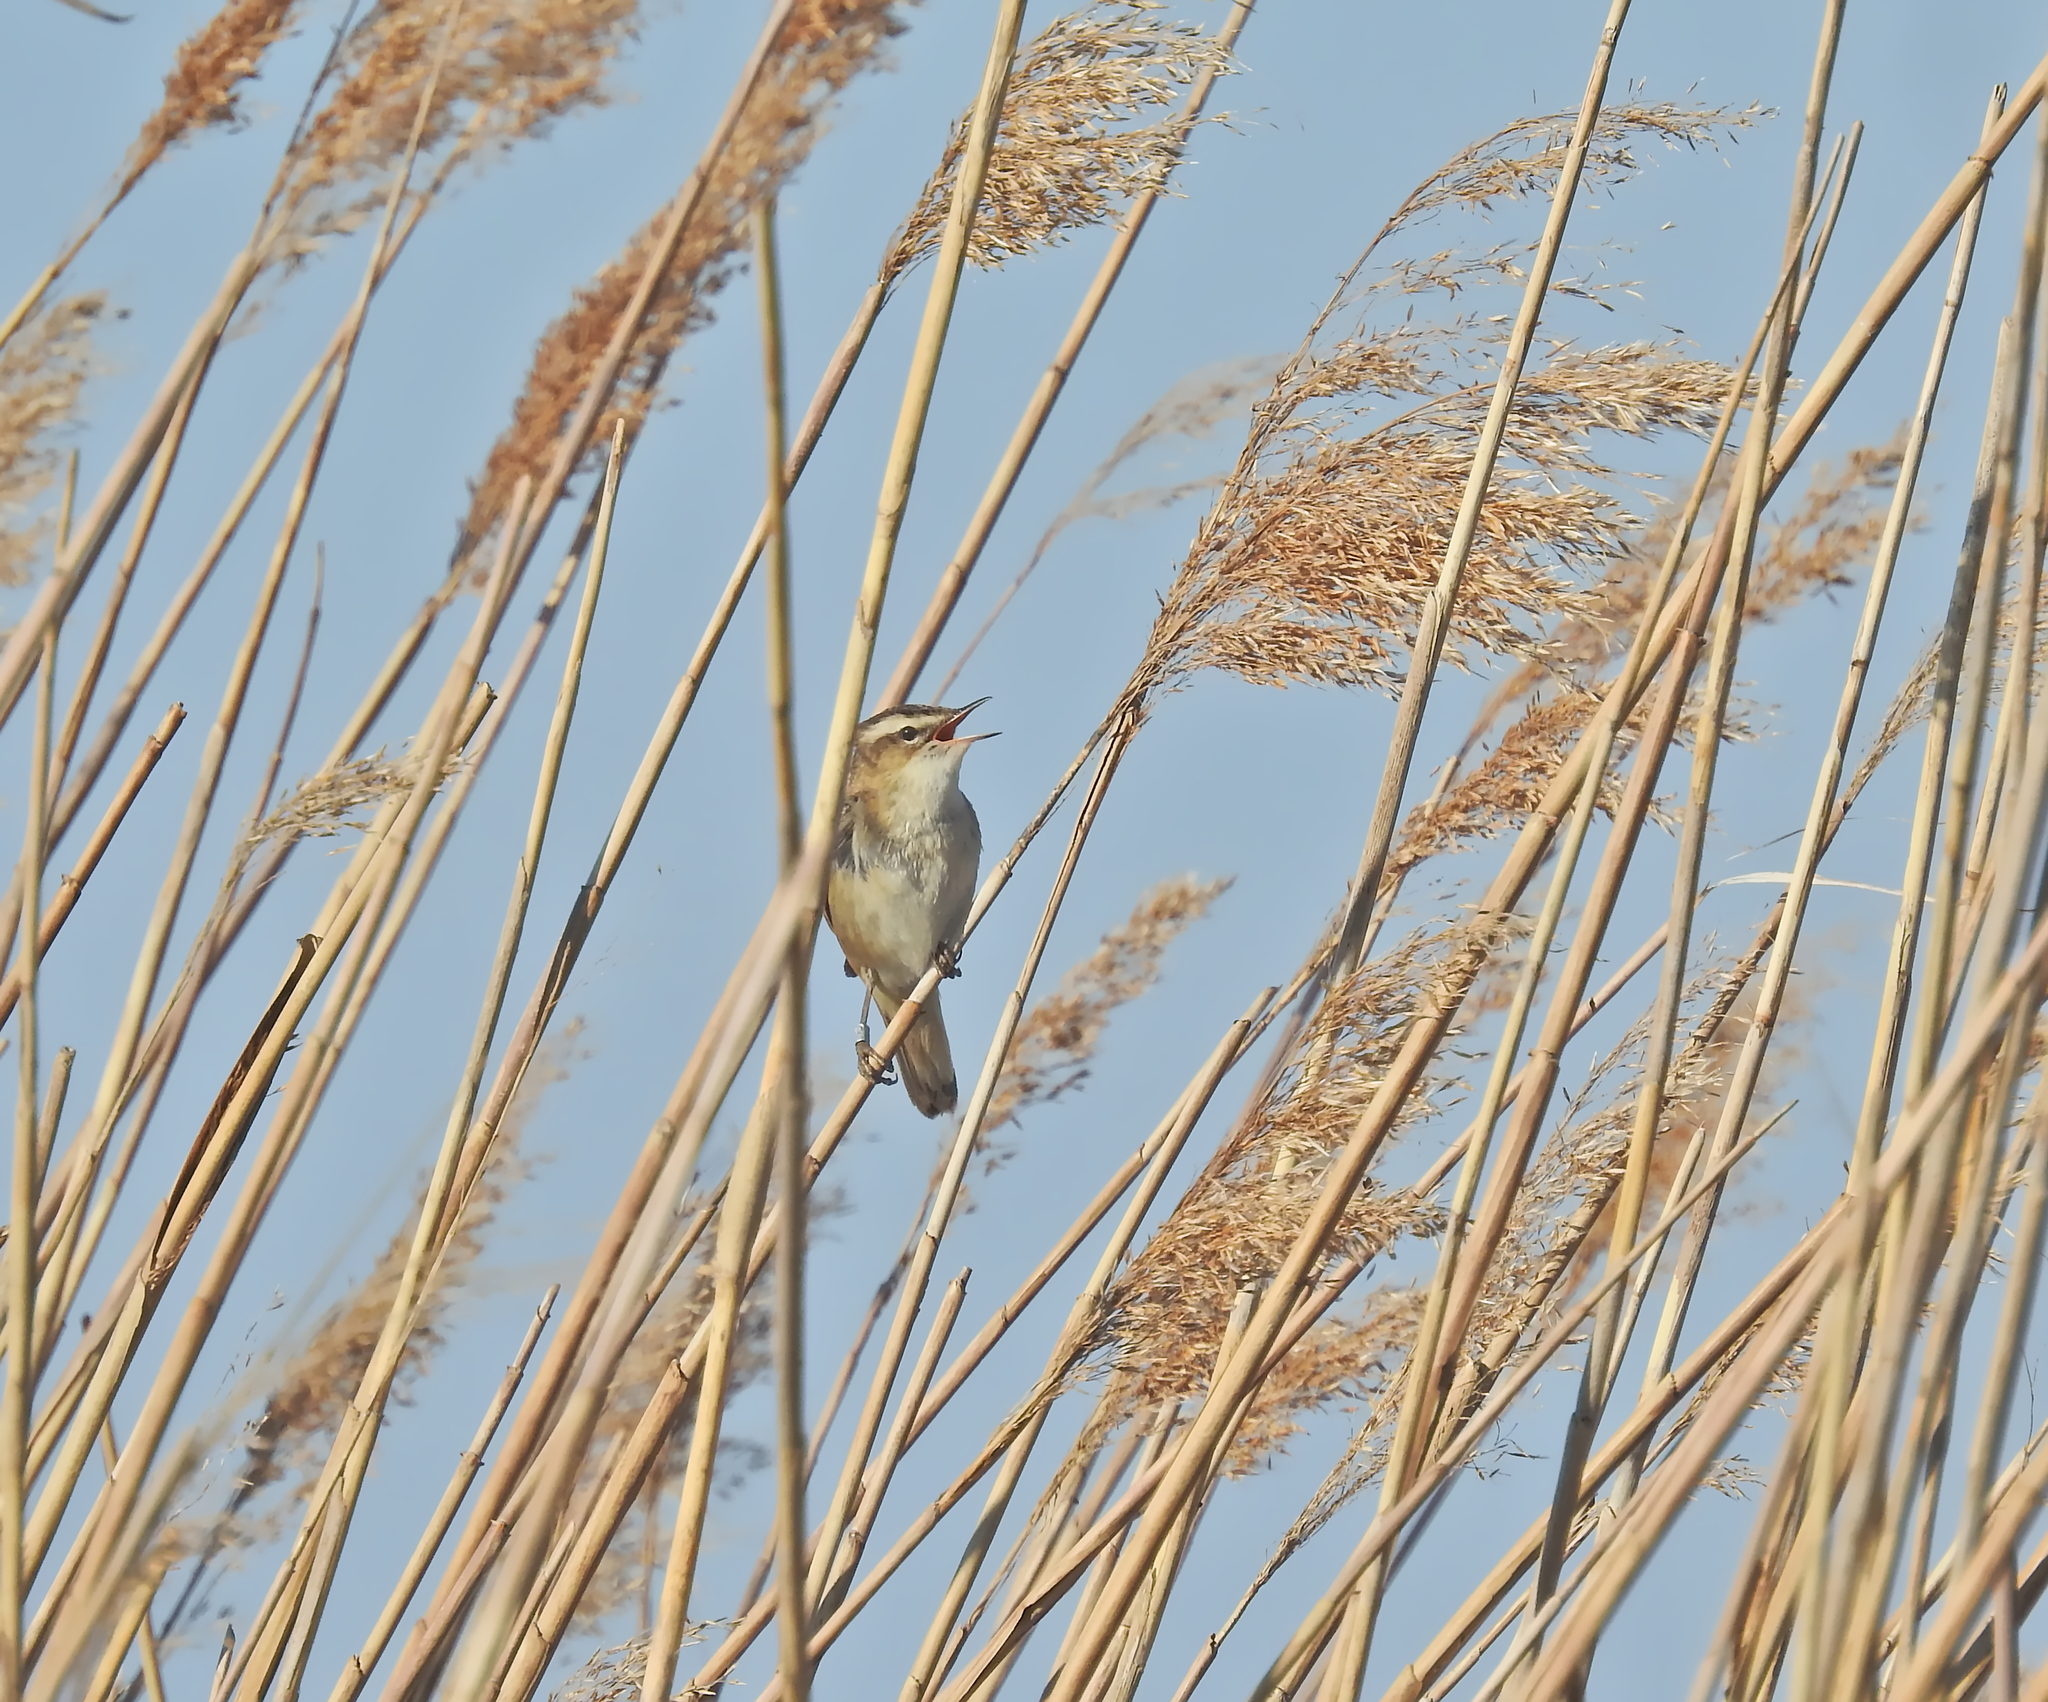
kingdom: Animalia
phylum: Chordata
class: Aves
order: Passeriformes
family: Acrocephalidae
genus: Acrocephalus
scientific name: Acrocephalus schoenobaenus
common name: Sedge warbler
